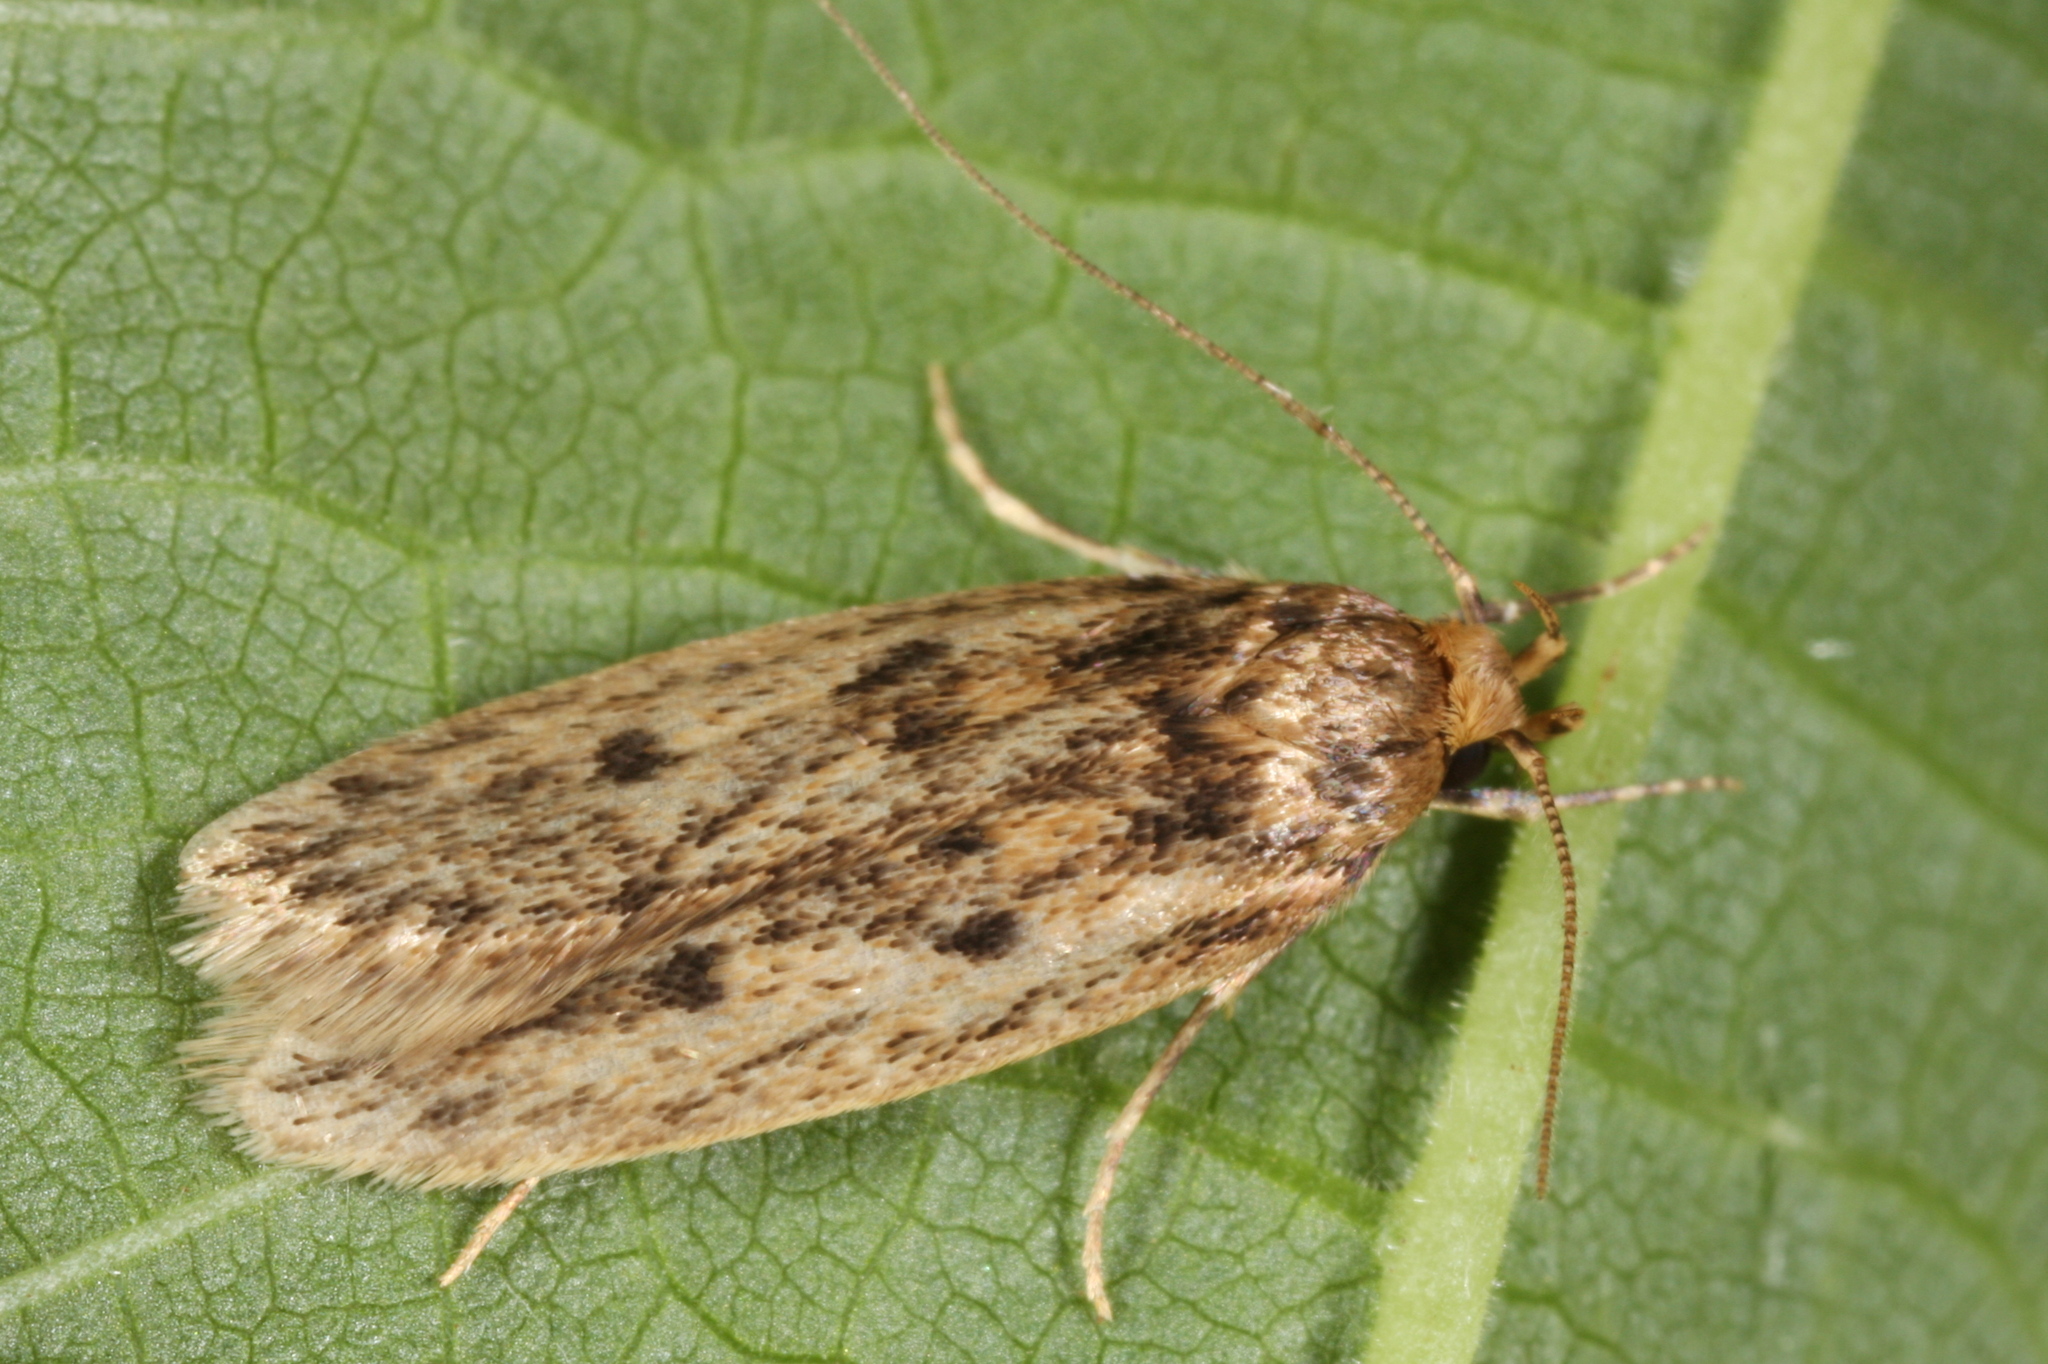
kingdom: Animalia
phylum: Arthropoda
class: Insecta
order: Lepidoptera
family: Oecophoridae
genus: Hofmannophila
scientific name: Hofmannophila pseudospretella
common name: Brown house moth
